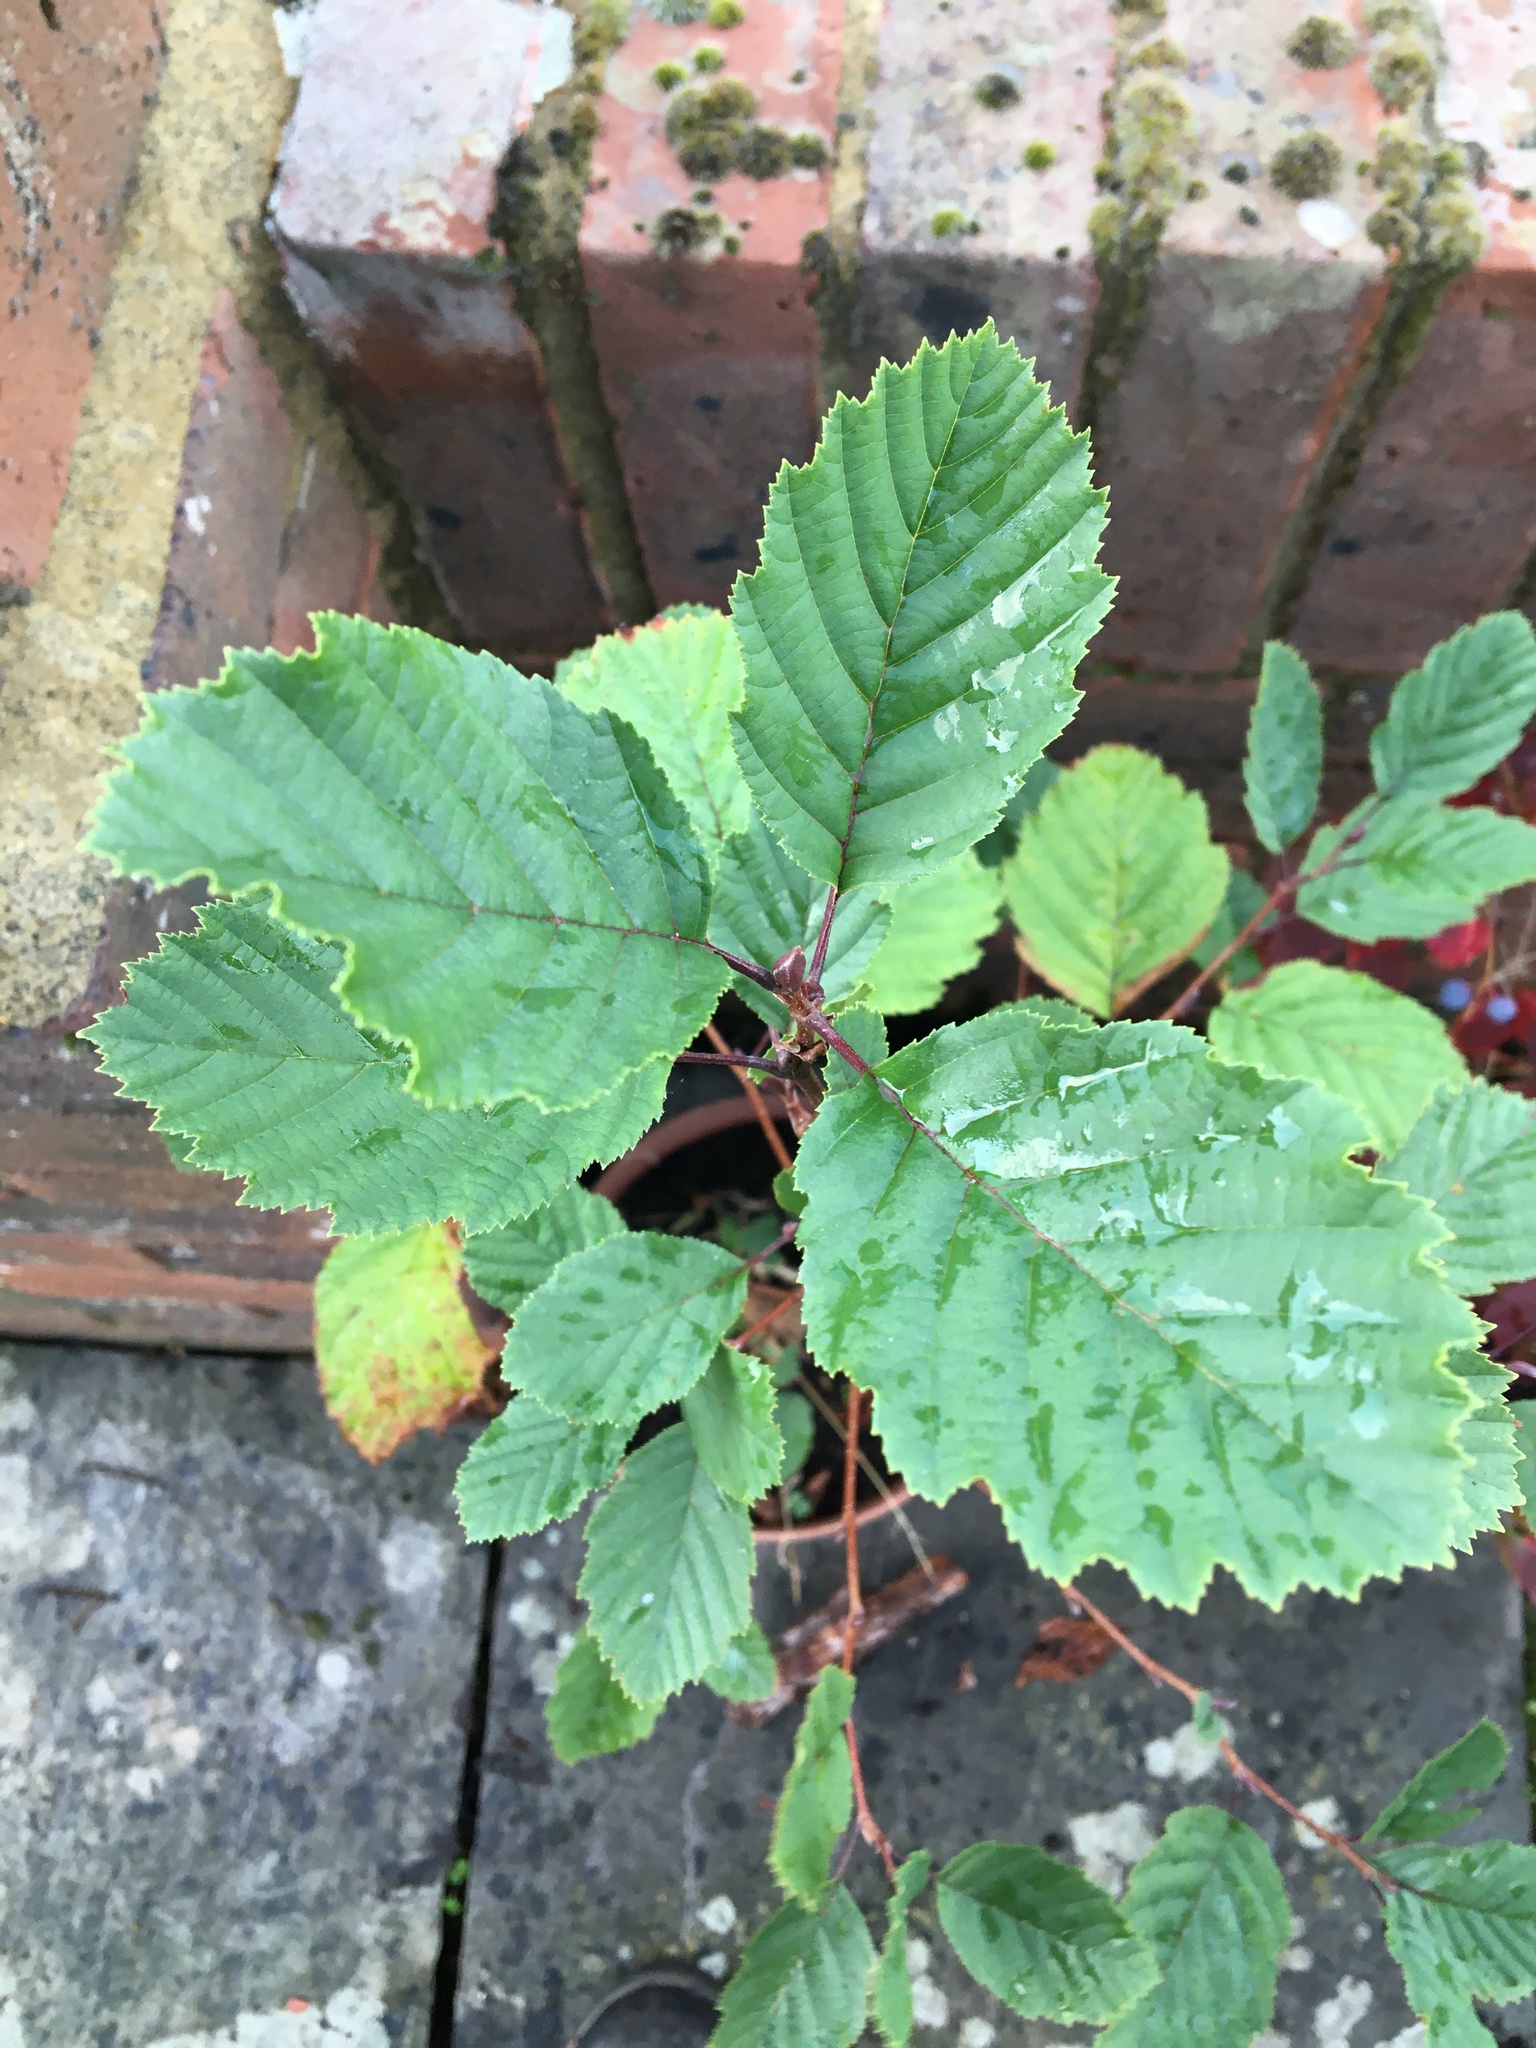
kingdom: Plantae
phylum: Tracheophyta
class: Magnoliopsida
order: Fagales
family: Betulaceae
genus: Carpinus
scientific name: Carpinus betulus
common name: Hornbeam
